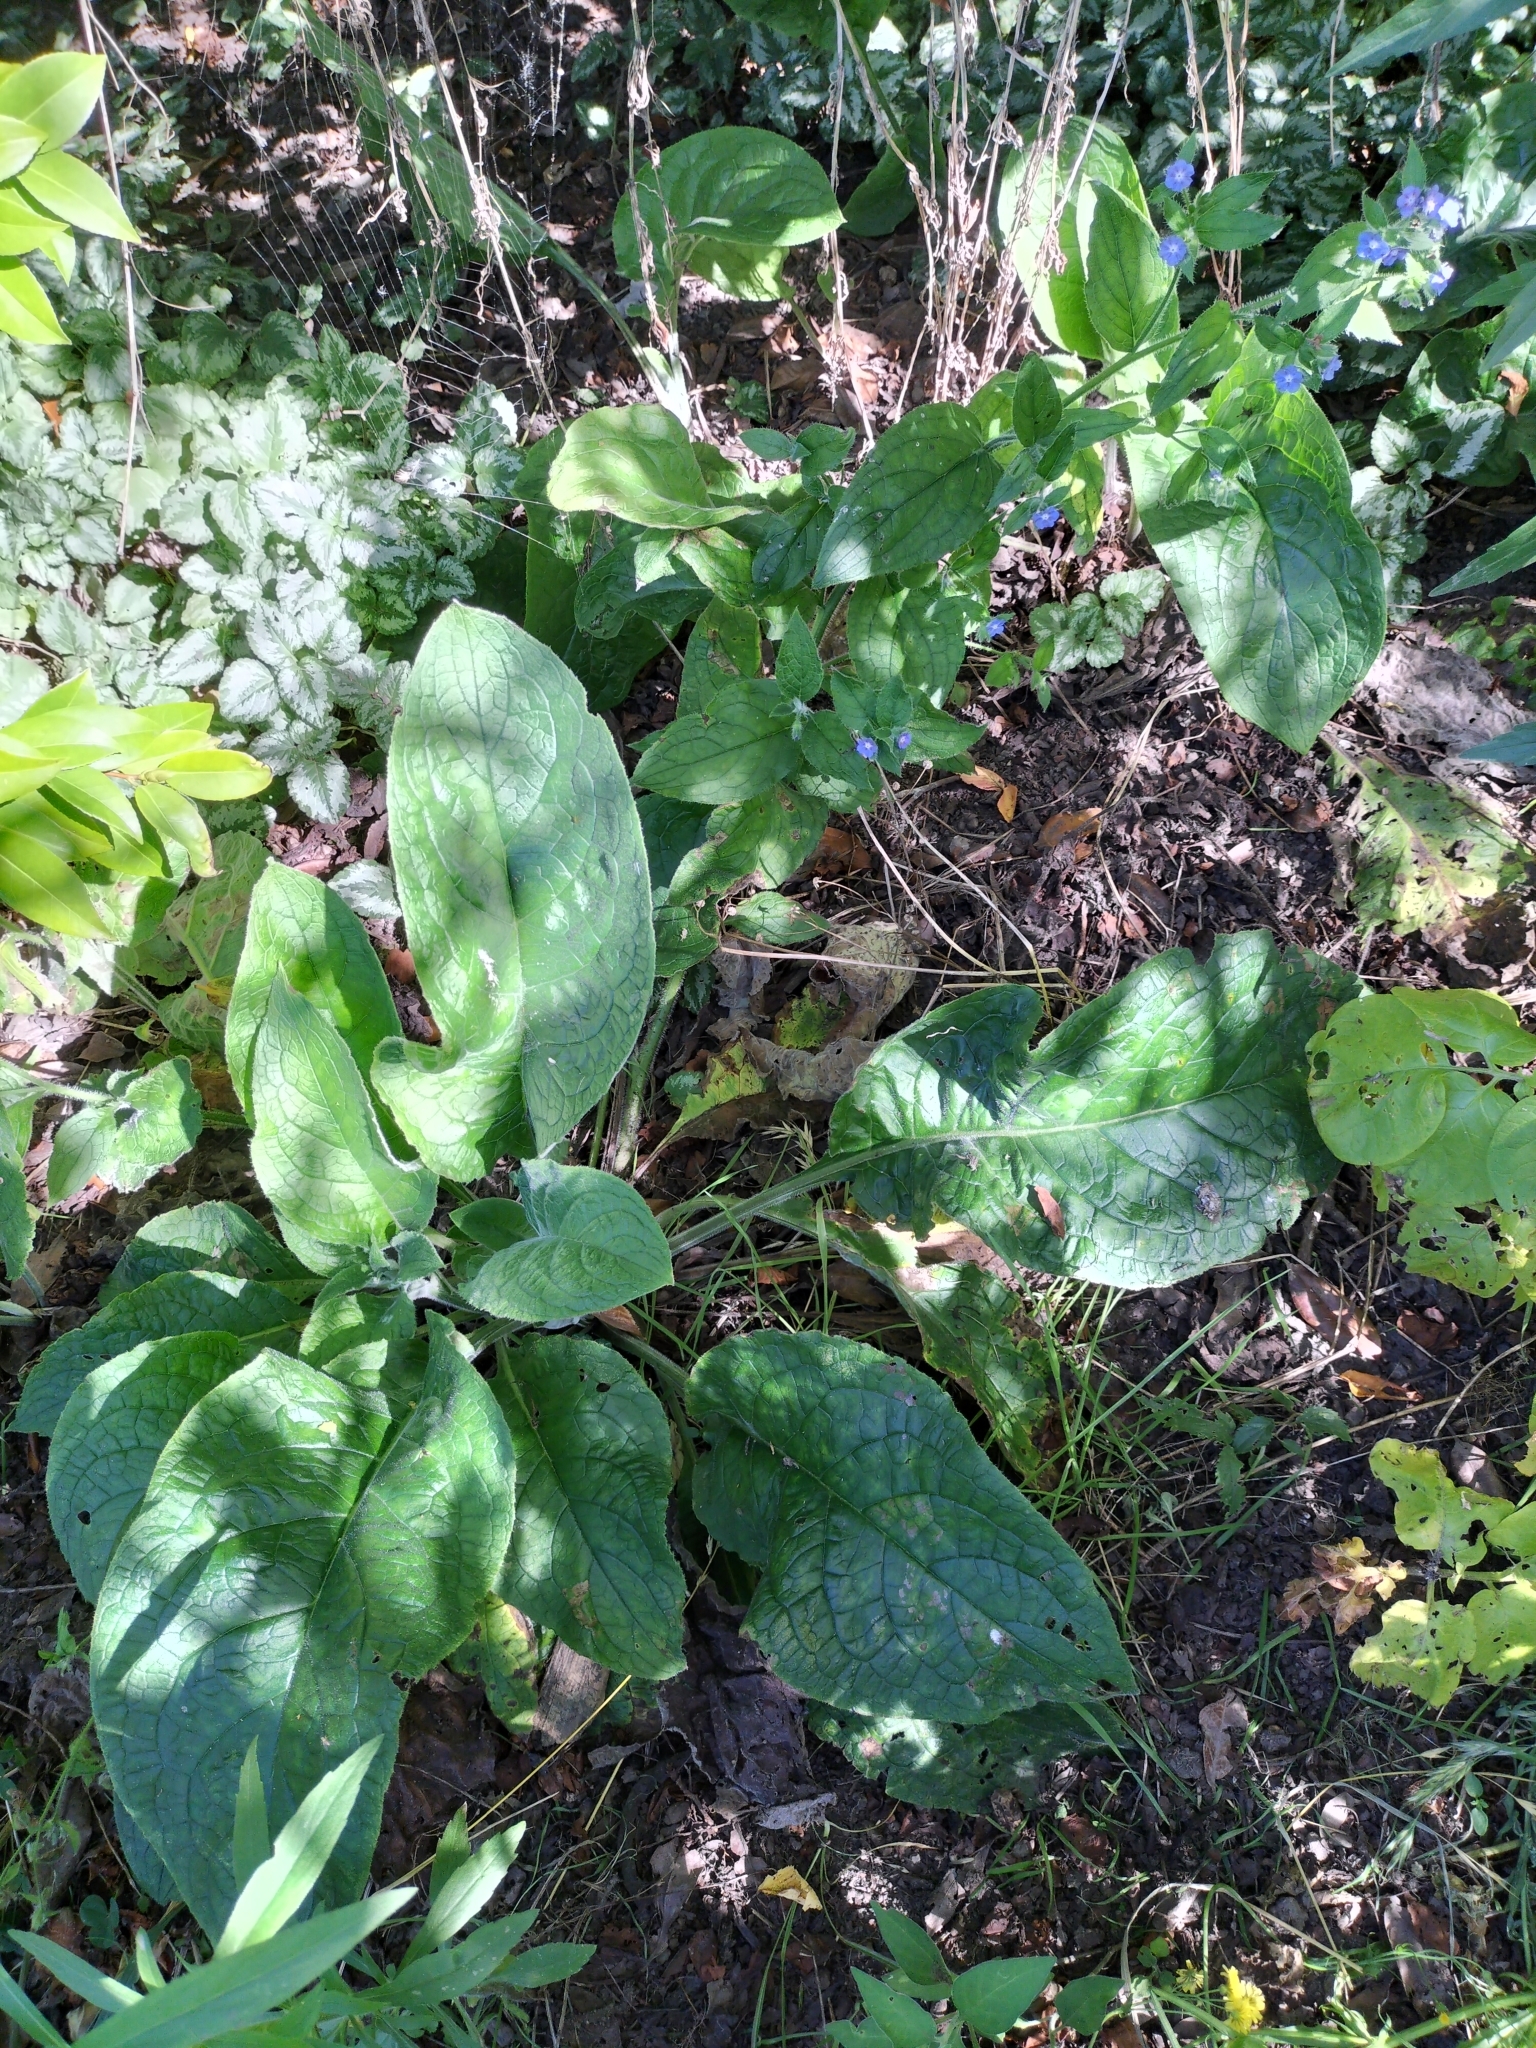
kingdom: Plantae
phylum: Tracheophyta
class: Magnoliopsida
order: Boraginales
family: Boraginaceae
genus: Pentaglottis
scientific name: Pentaglottis sempervirens
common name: Green alkanet
